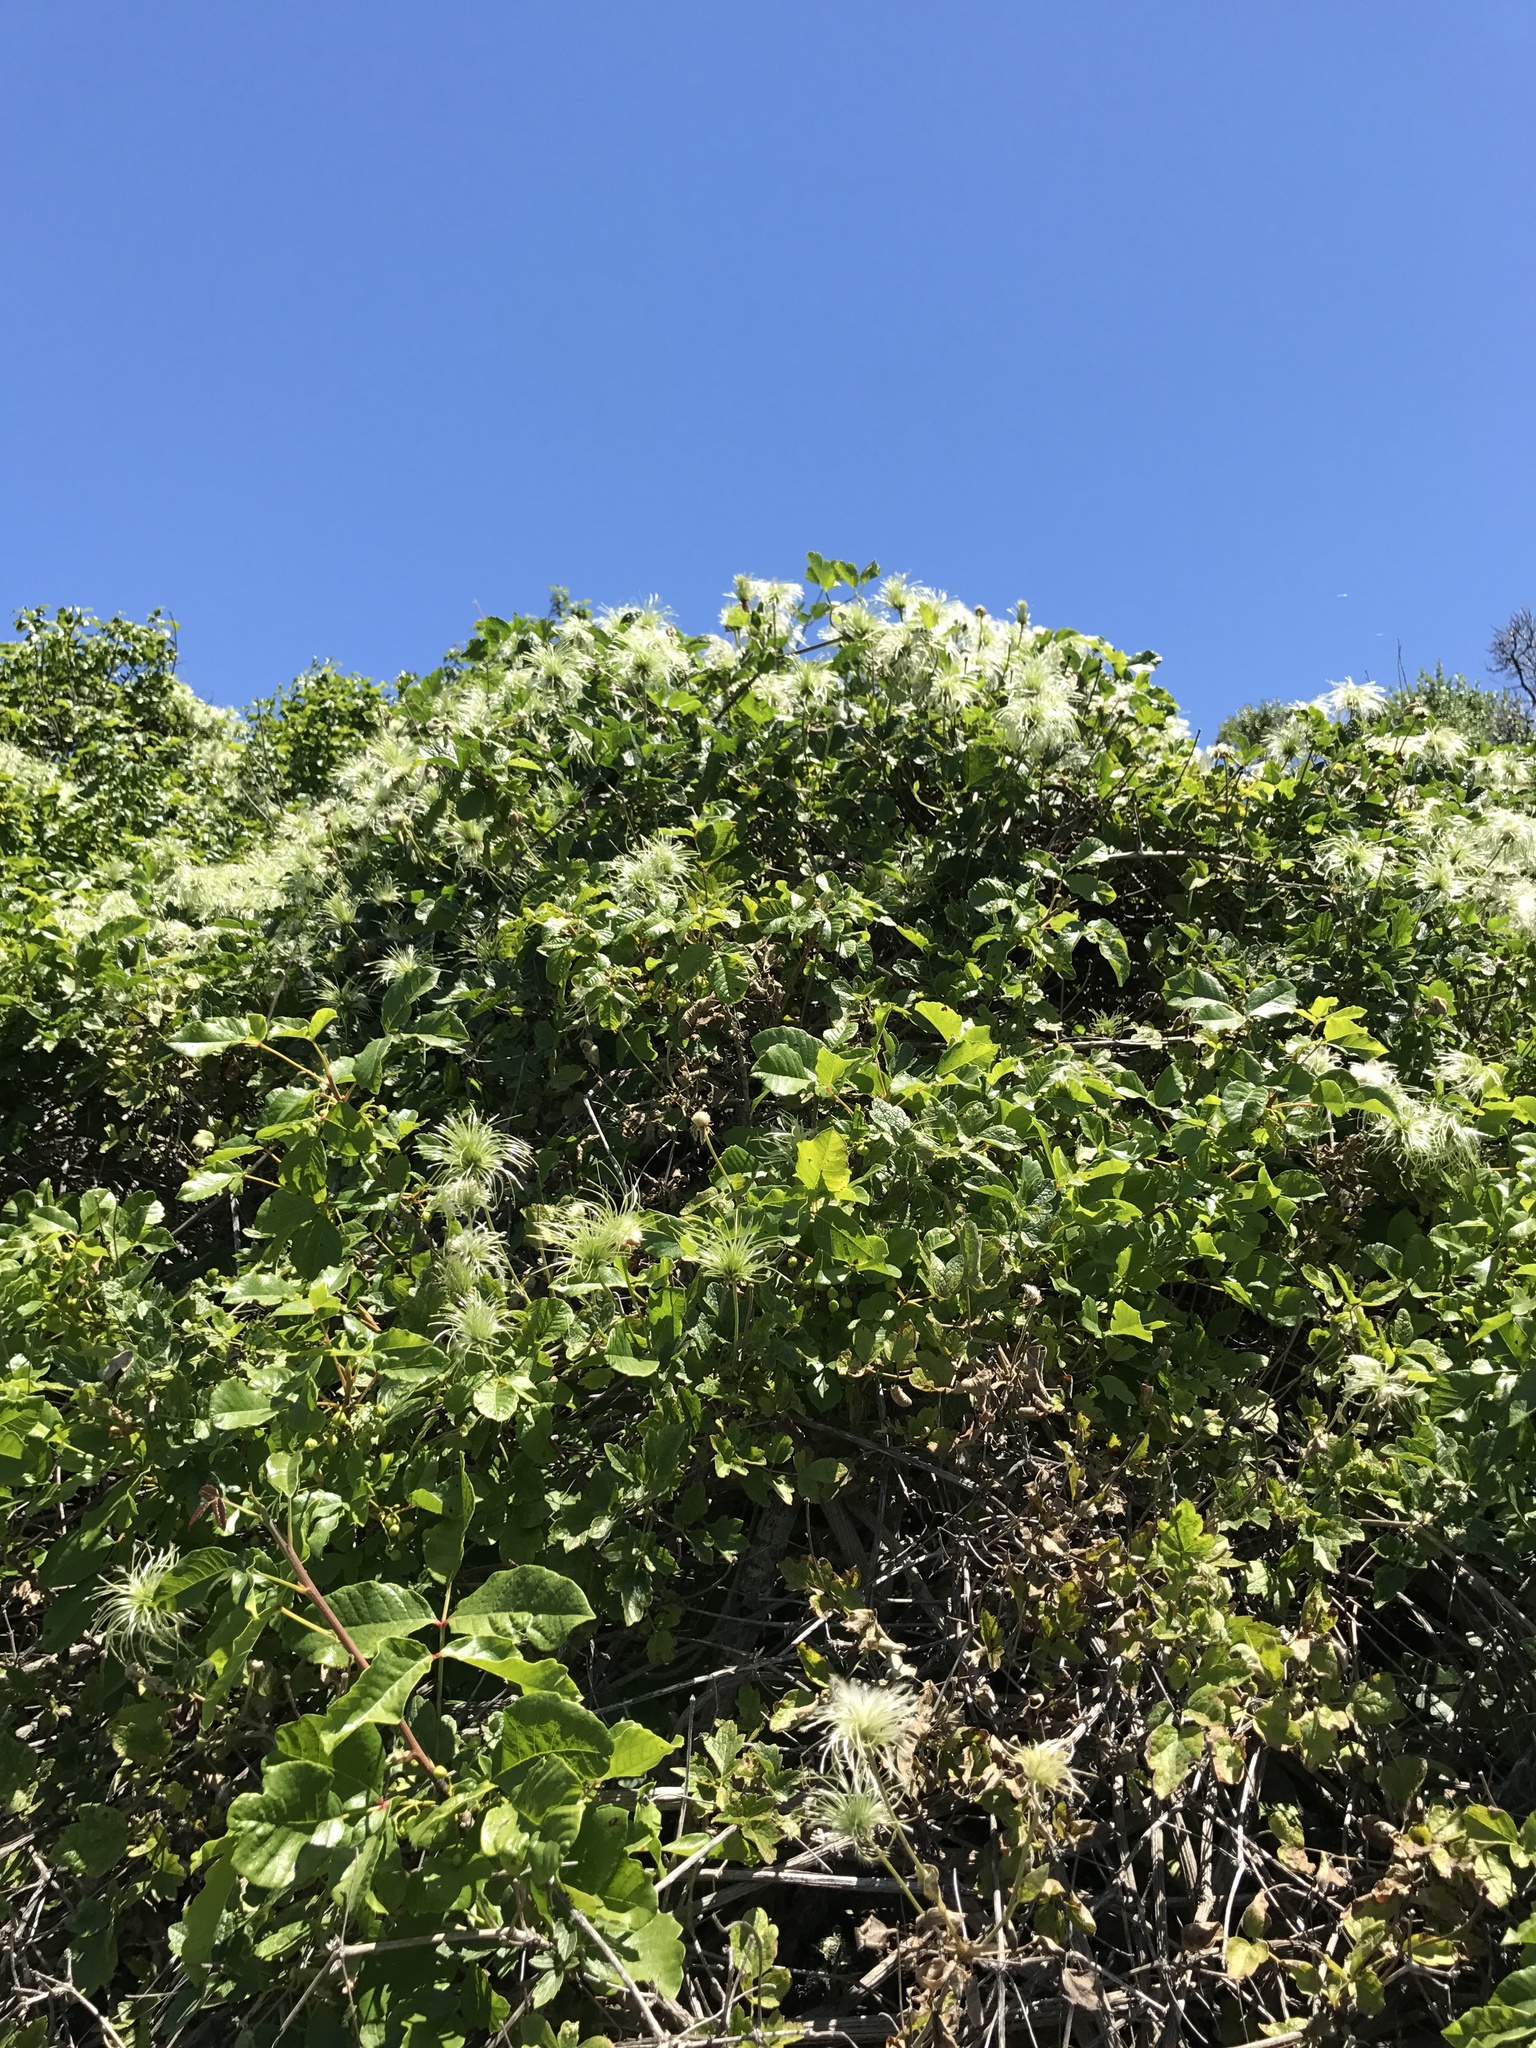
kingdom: Plantae
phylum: Tracheophyta
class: Magnoliopsida
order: Ranunculales
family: Ranunculaceae
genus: Clematis
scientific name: Clematis lasiantha
